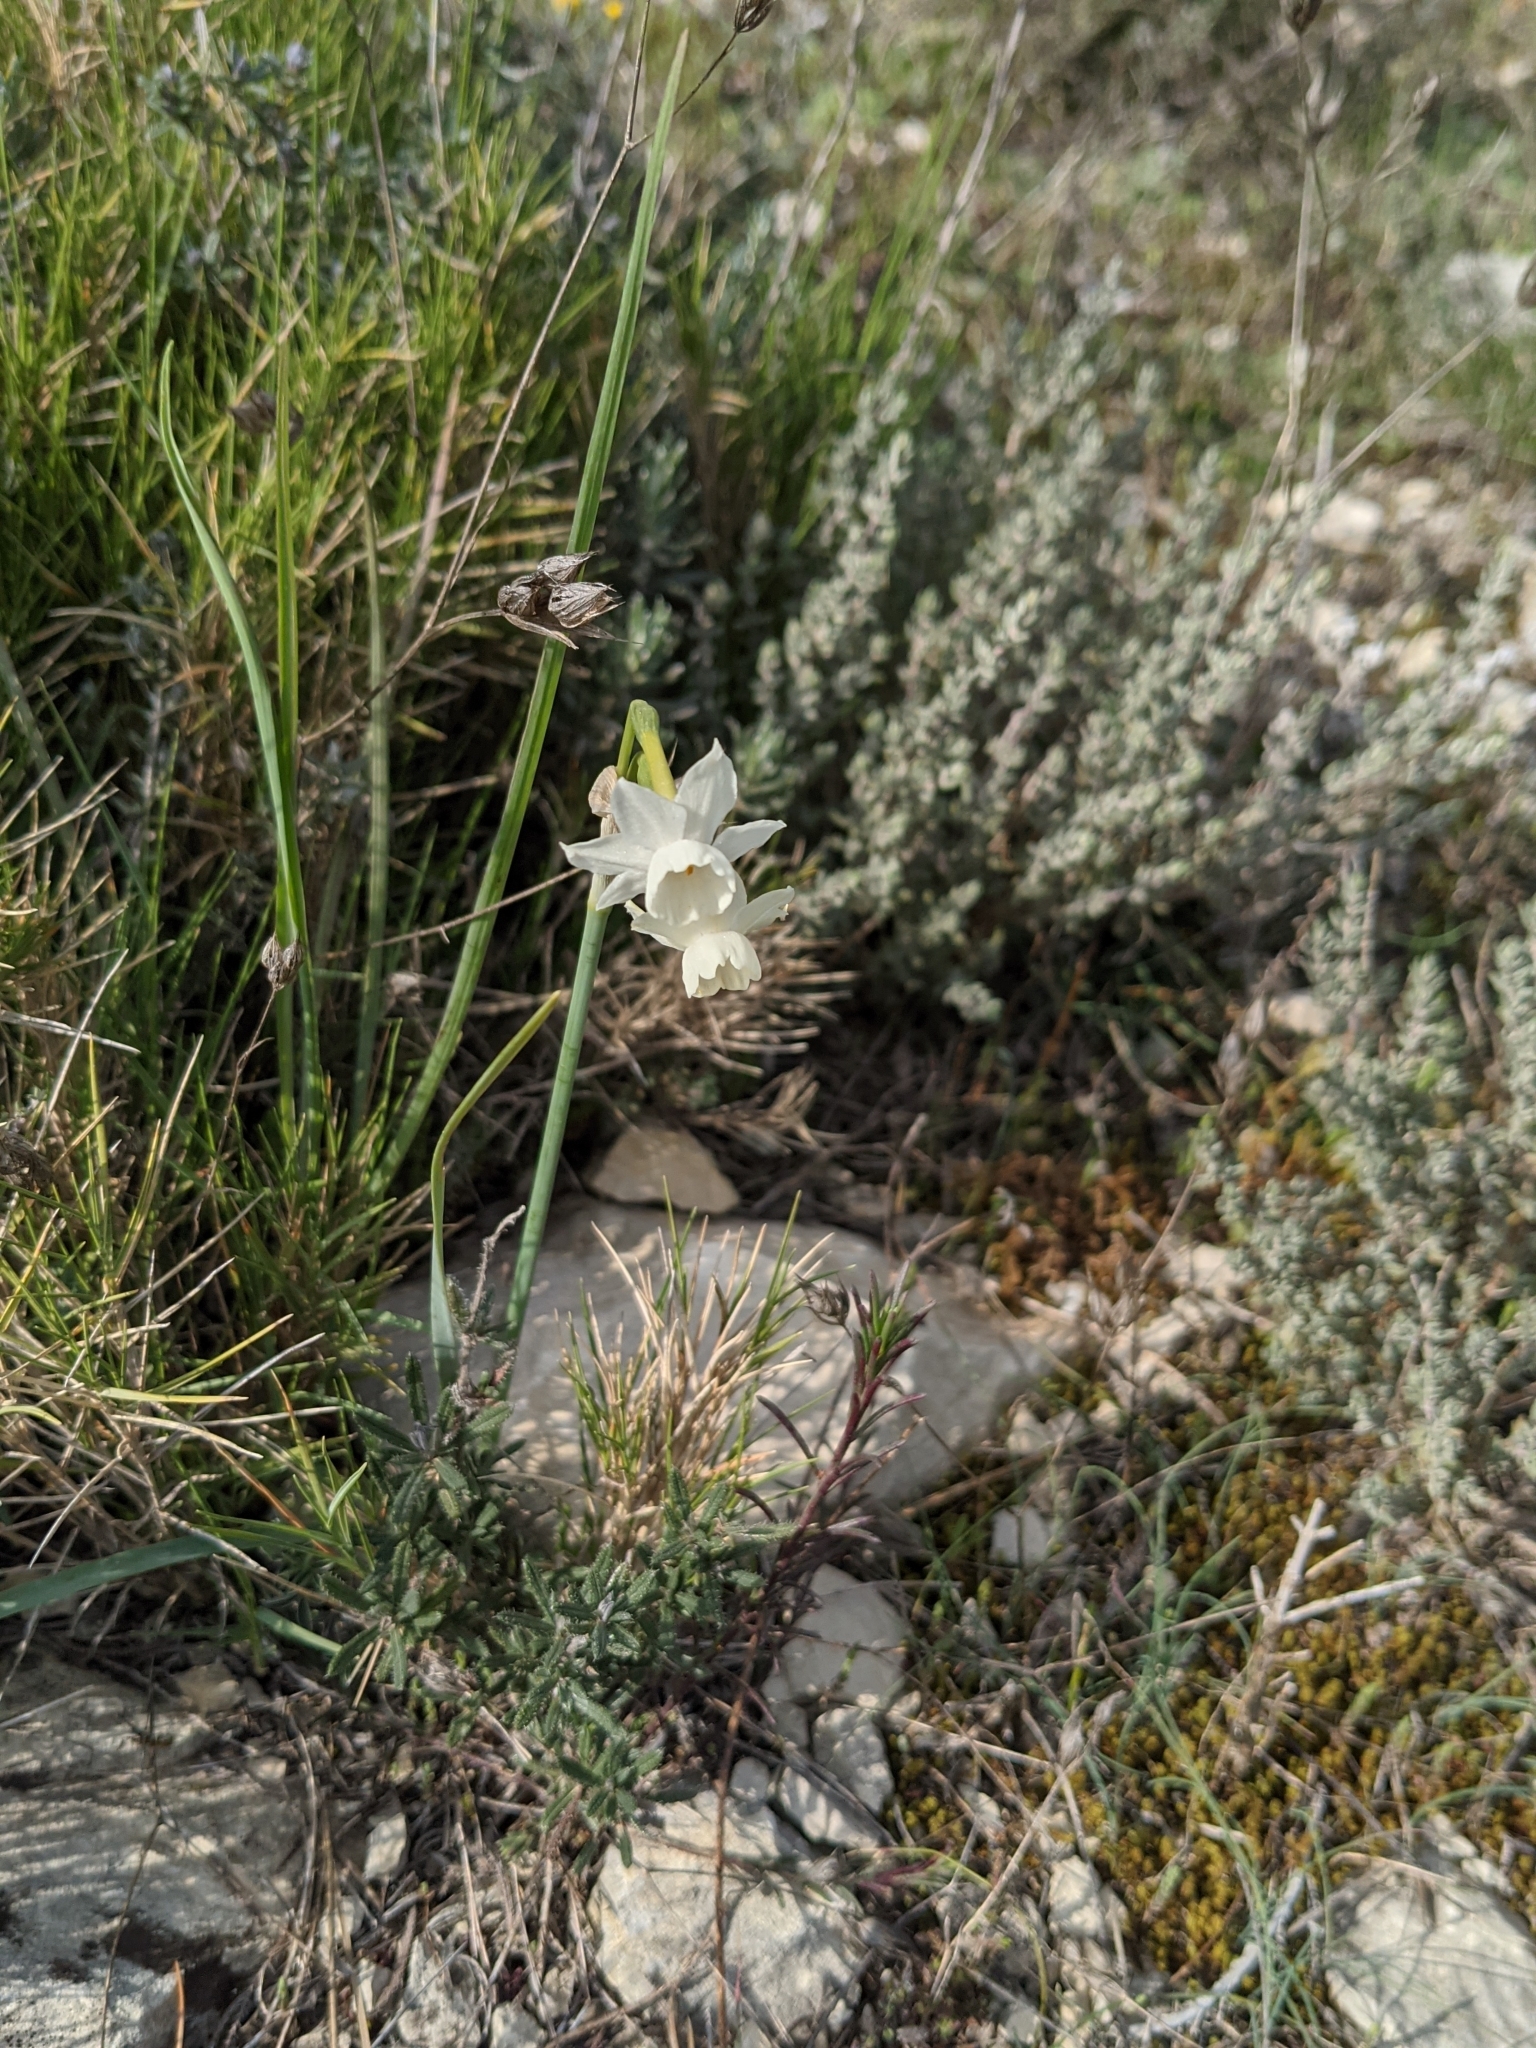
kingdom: Plantae
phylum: Tracheophyta
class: Liliopsida
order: Asparagales
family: Amaryllidaceae
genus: Narcissus
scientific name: Narcissus dubius
